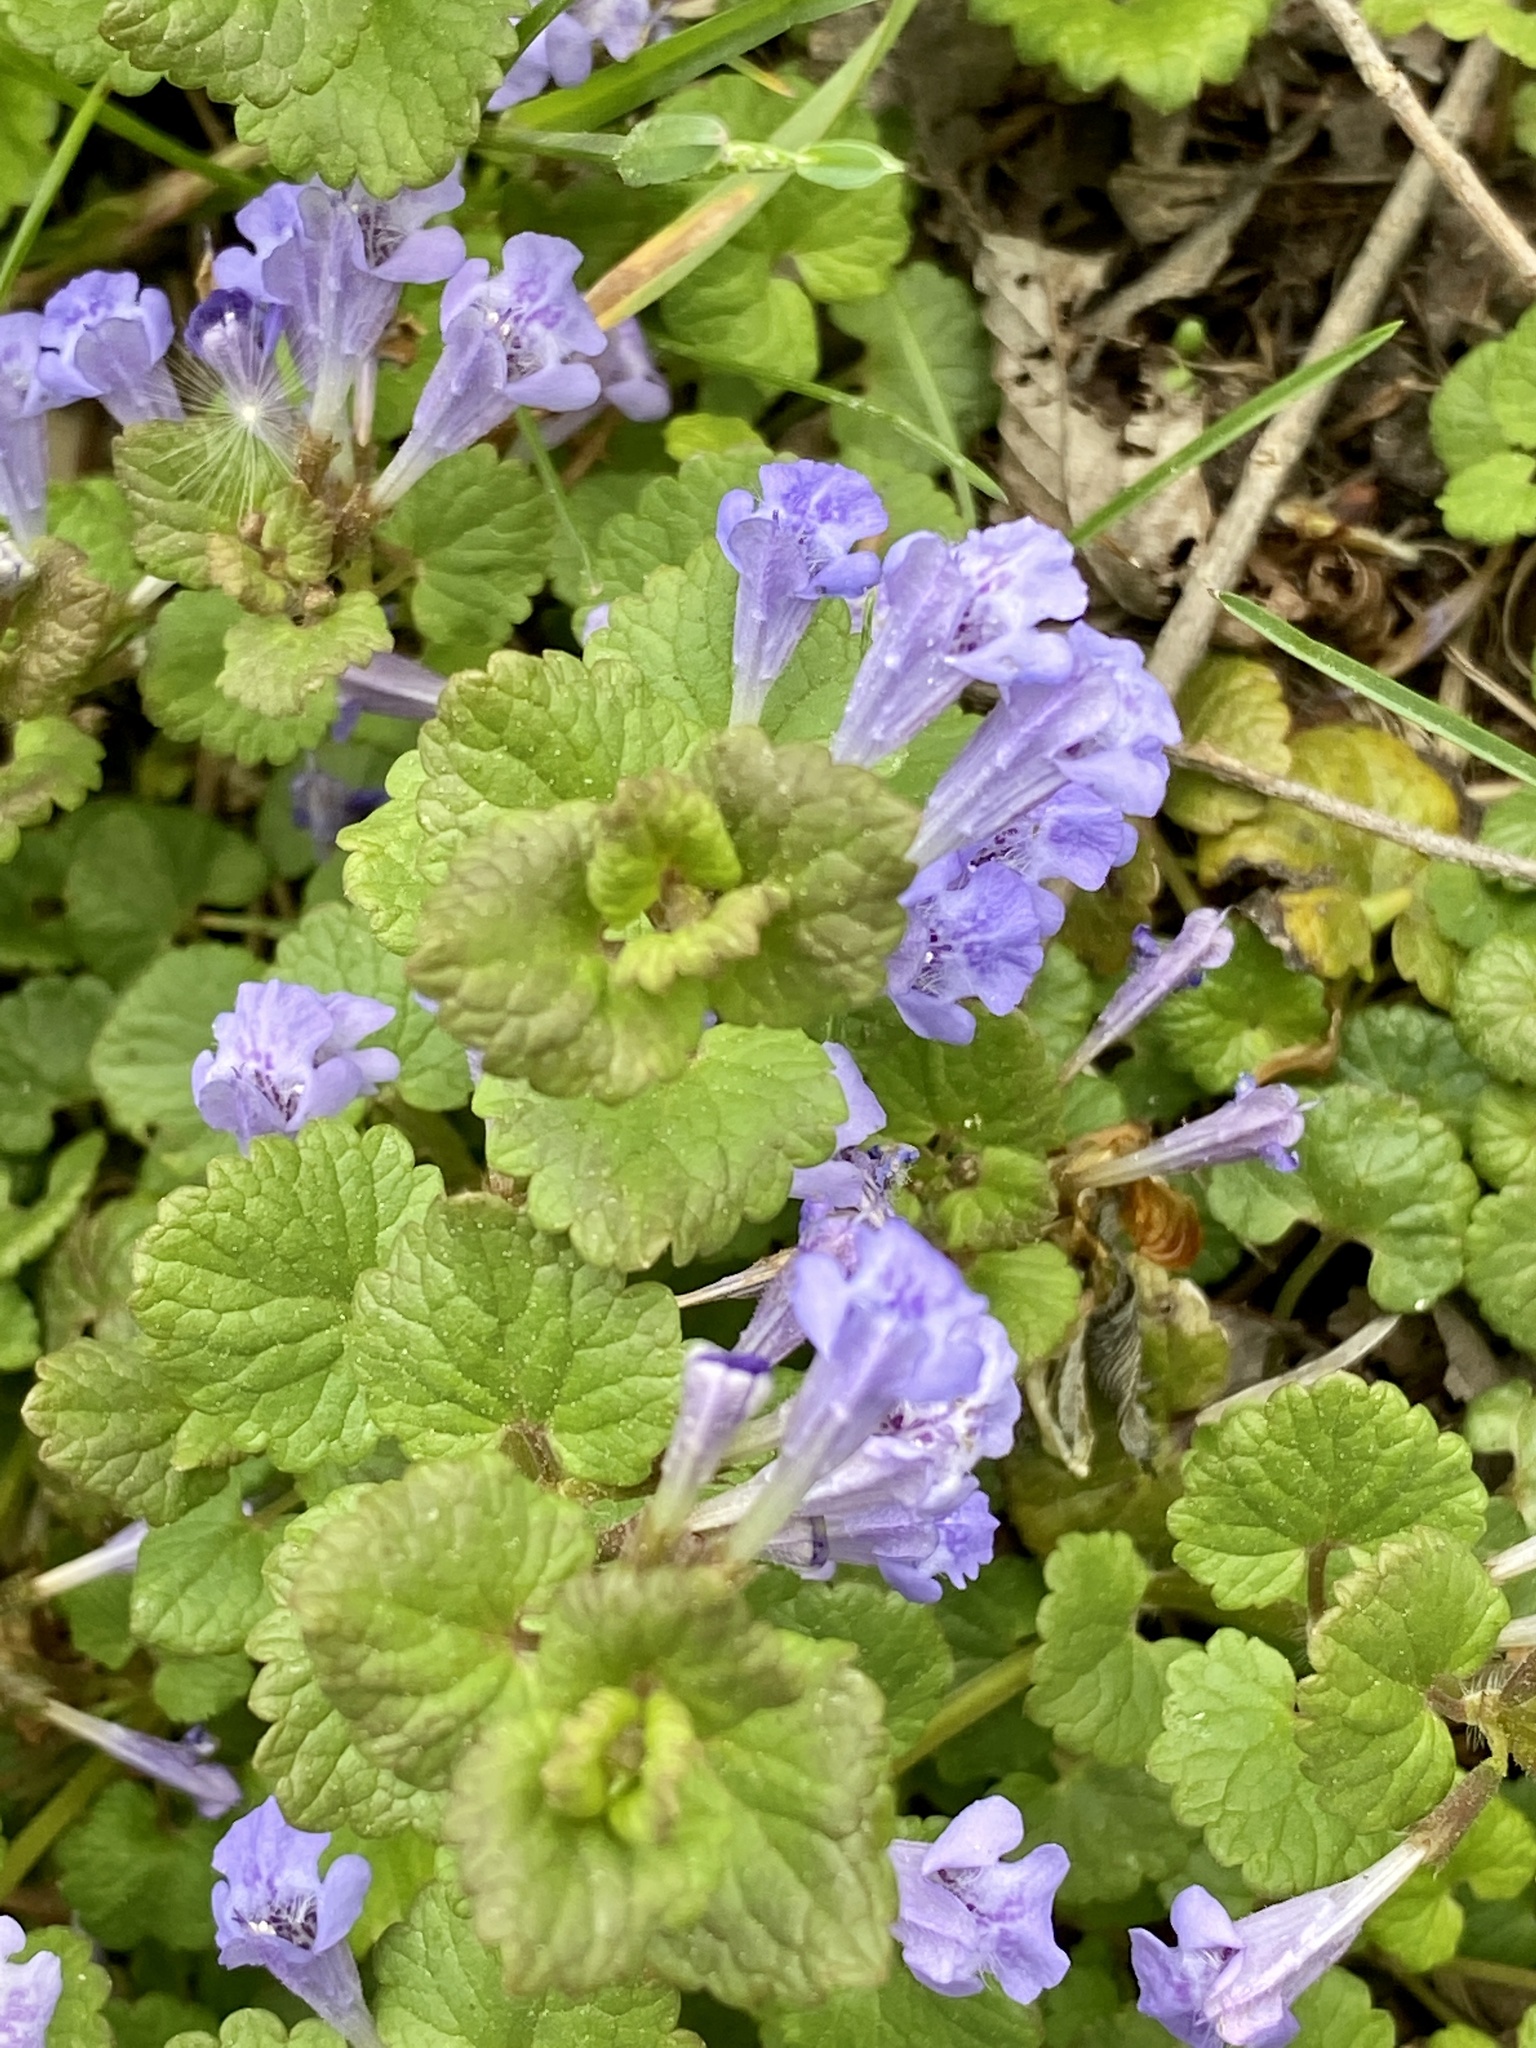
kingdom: Plantae
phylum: Tracheophyta
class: Magnoliopsida
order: Lamiales
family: Lamiaceae
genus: Glechoma
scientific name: Glechoma hederacea
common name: Ground ivy
